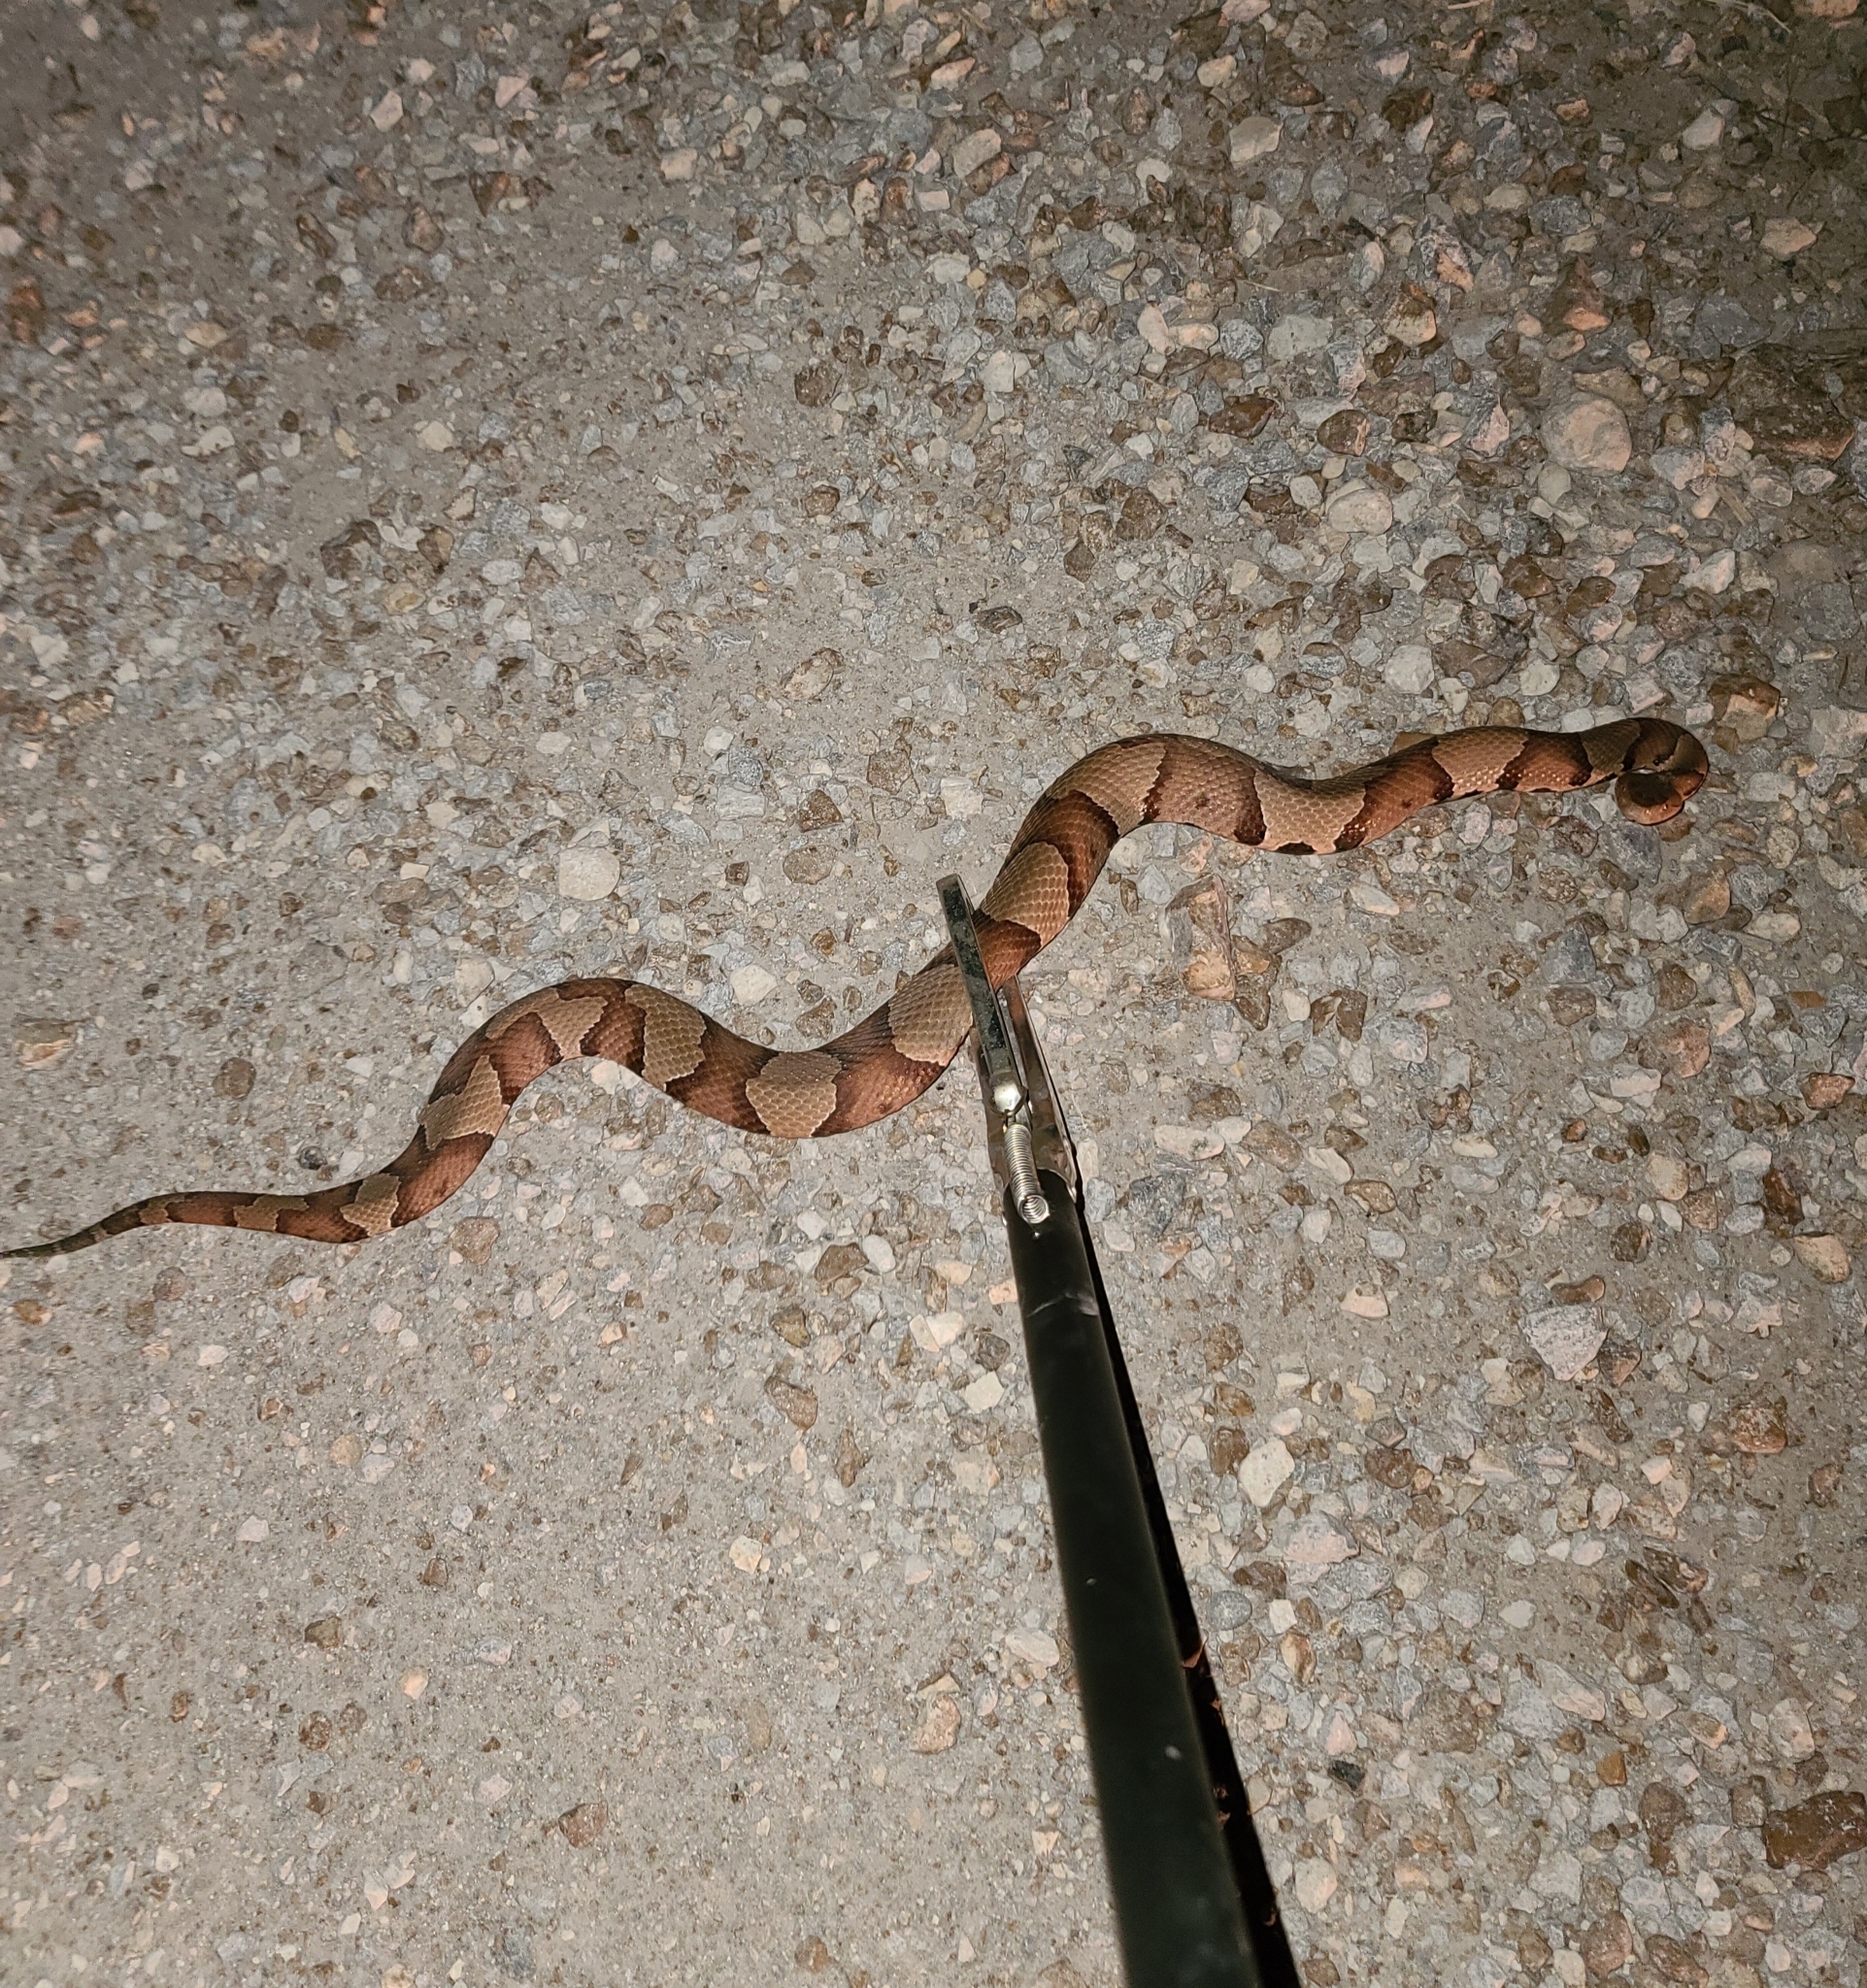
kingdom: Animalia
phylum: Chordata
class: Squamata
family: Viperidae
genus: Agkistrodon
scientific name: Agkistrodon laticinctus
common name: Broad-banded copperhead
